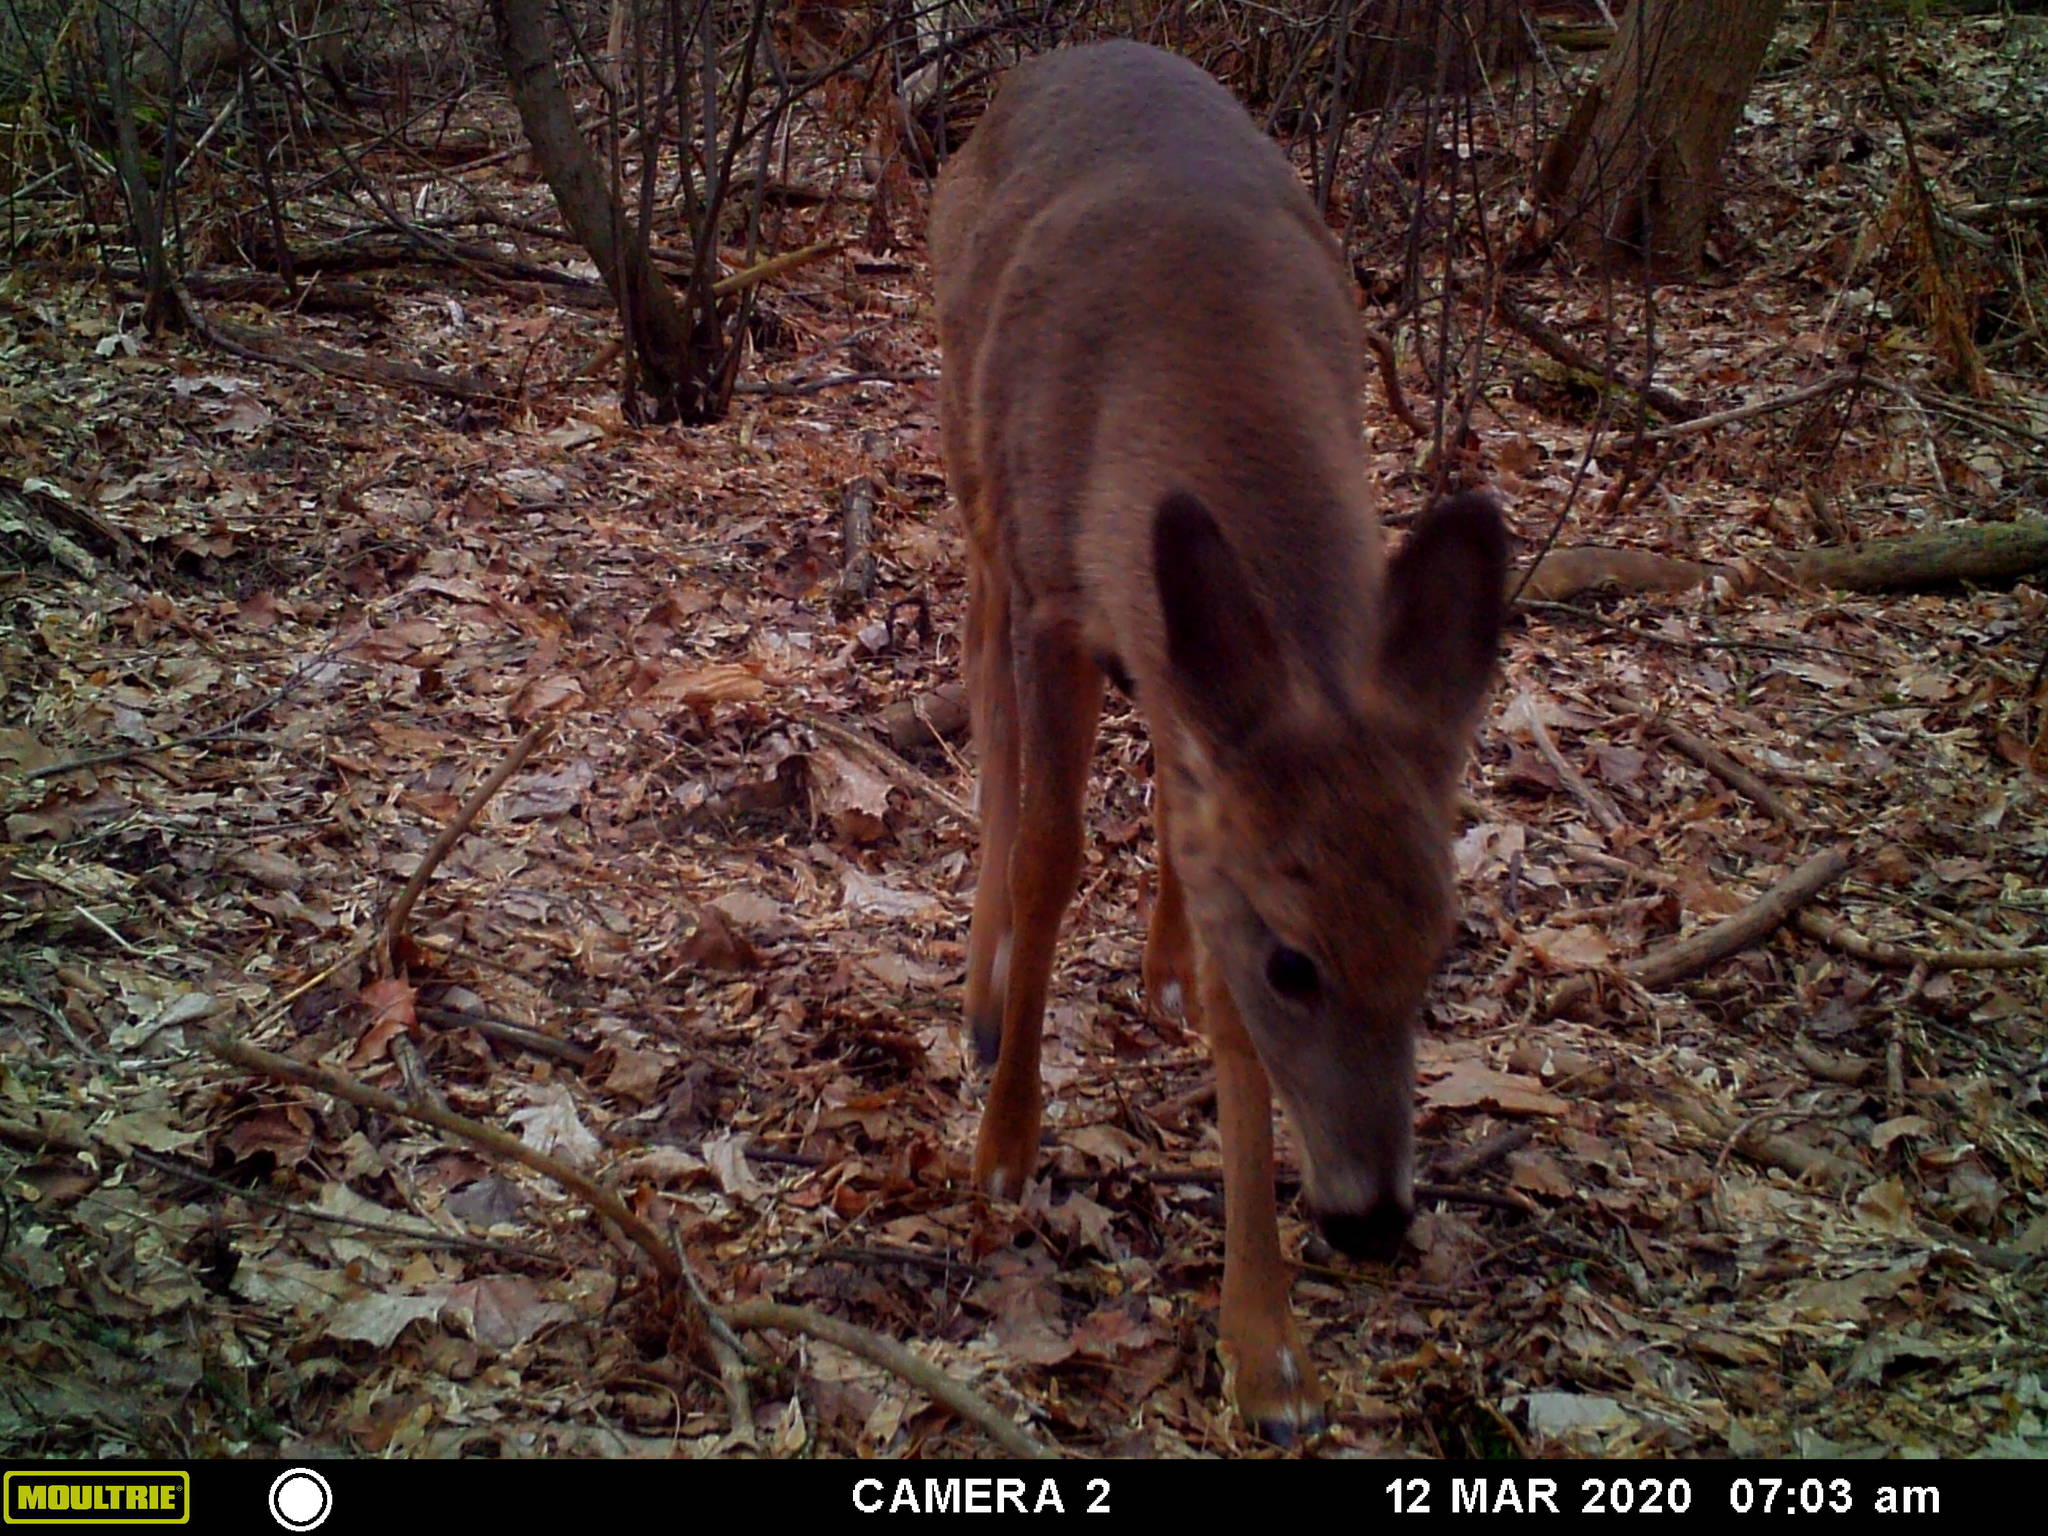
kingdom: Animalia
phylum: Chordata
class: Mammalia
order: Artiodactyla
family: Cervidae
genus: Odocoileus
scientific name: Odocoileus virginianus
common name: White-tailed deer
